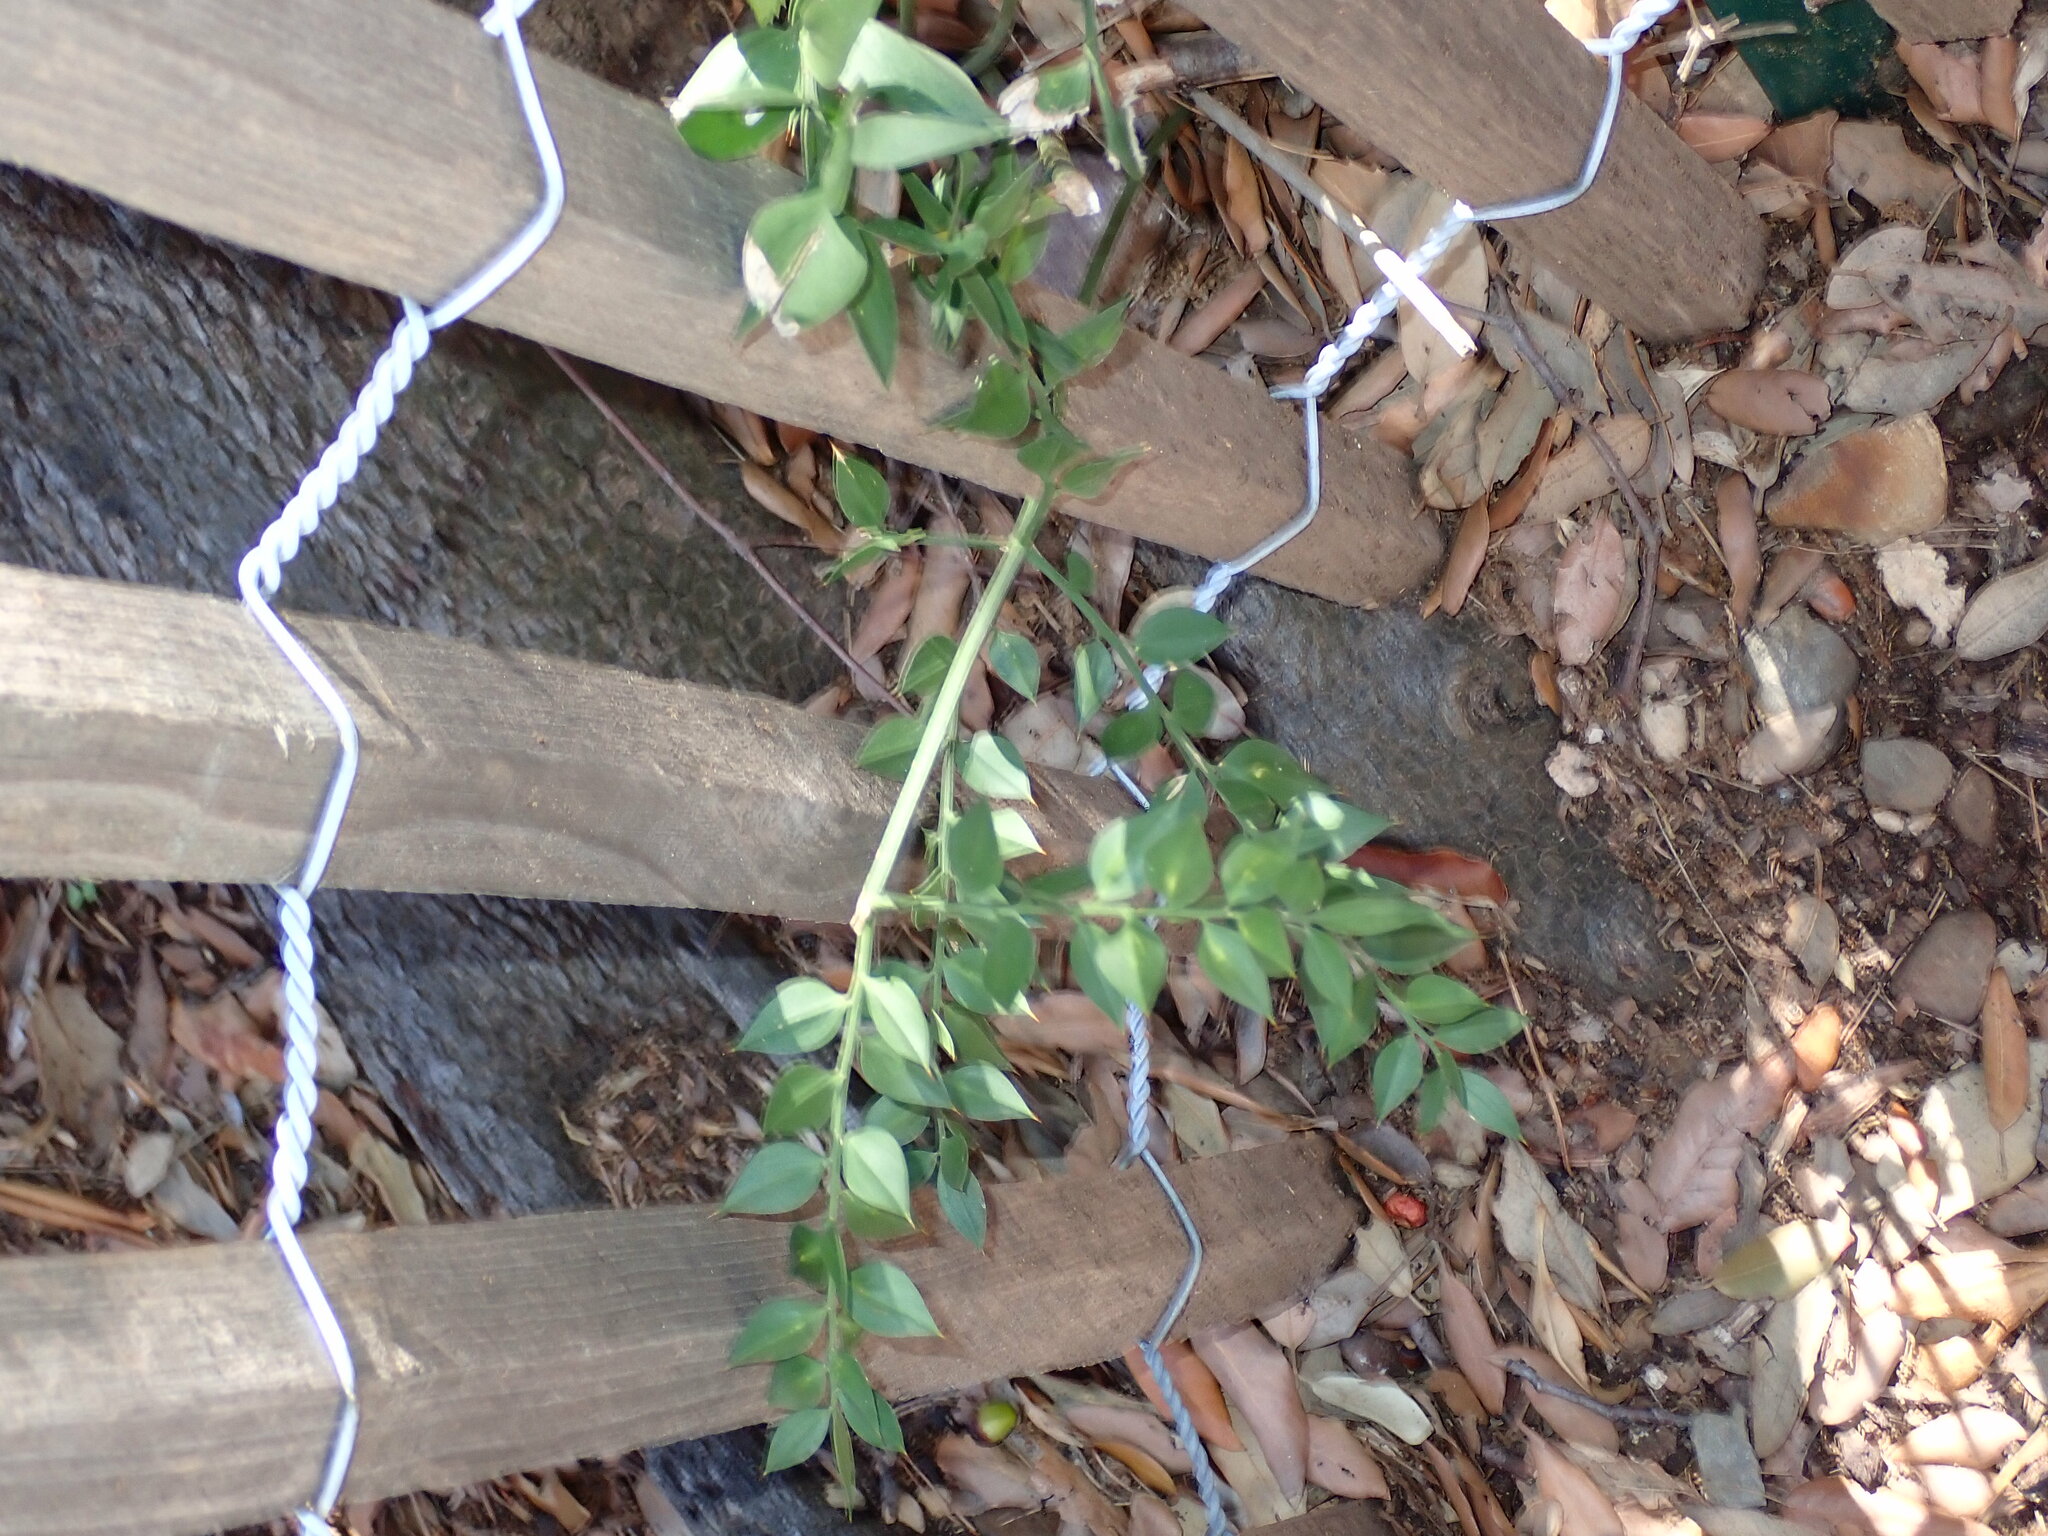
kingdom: Plantae
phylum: Tracheophyta
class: Liliopsida
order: Liliales
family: Smilacaceae
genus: Smilax
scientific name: Smilax aspera
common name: Common smilax
